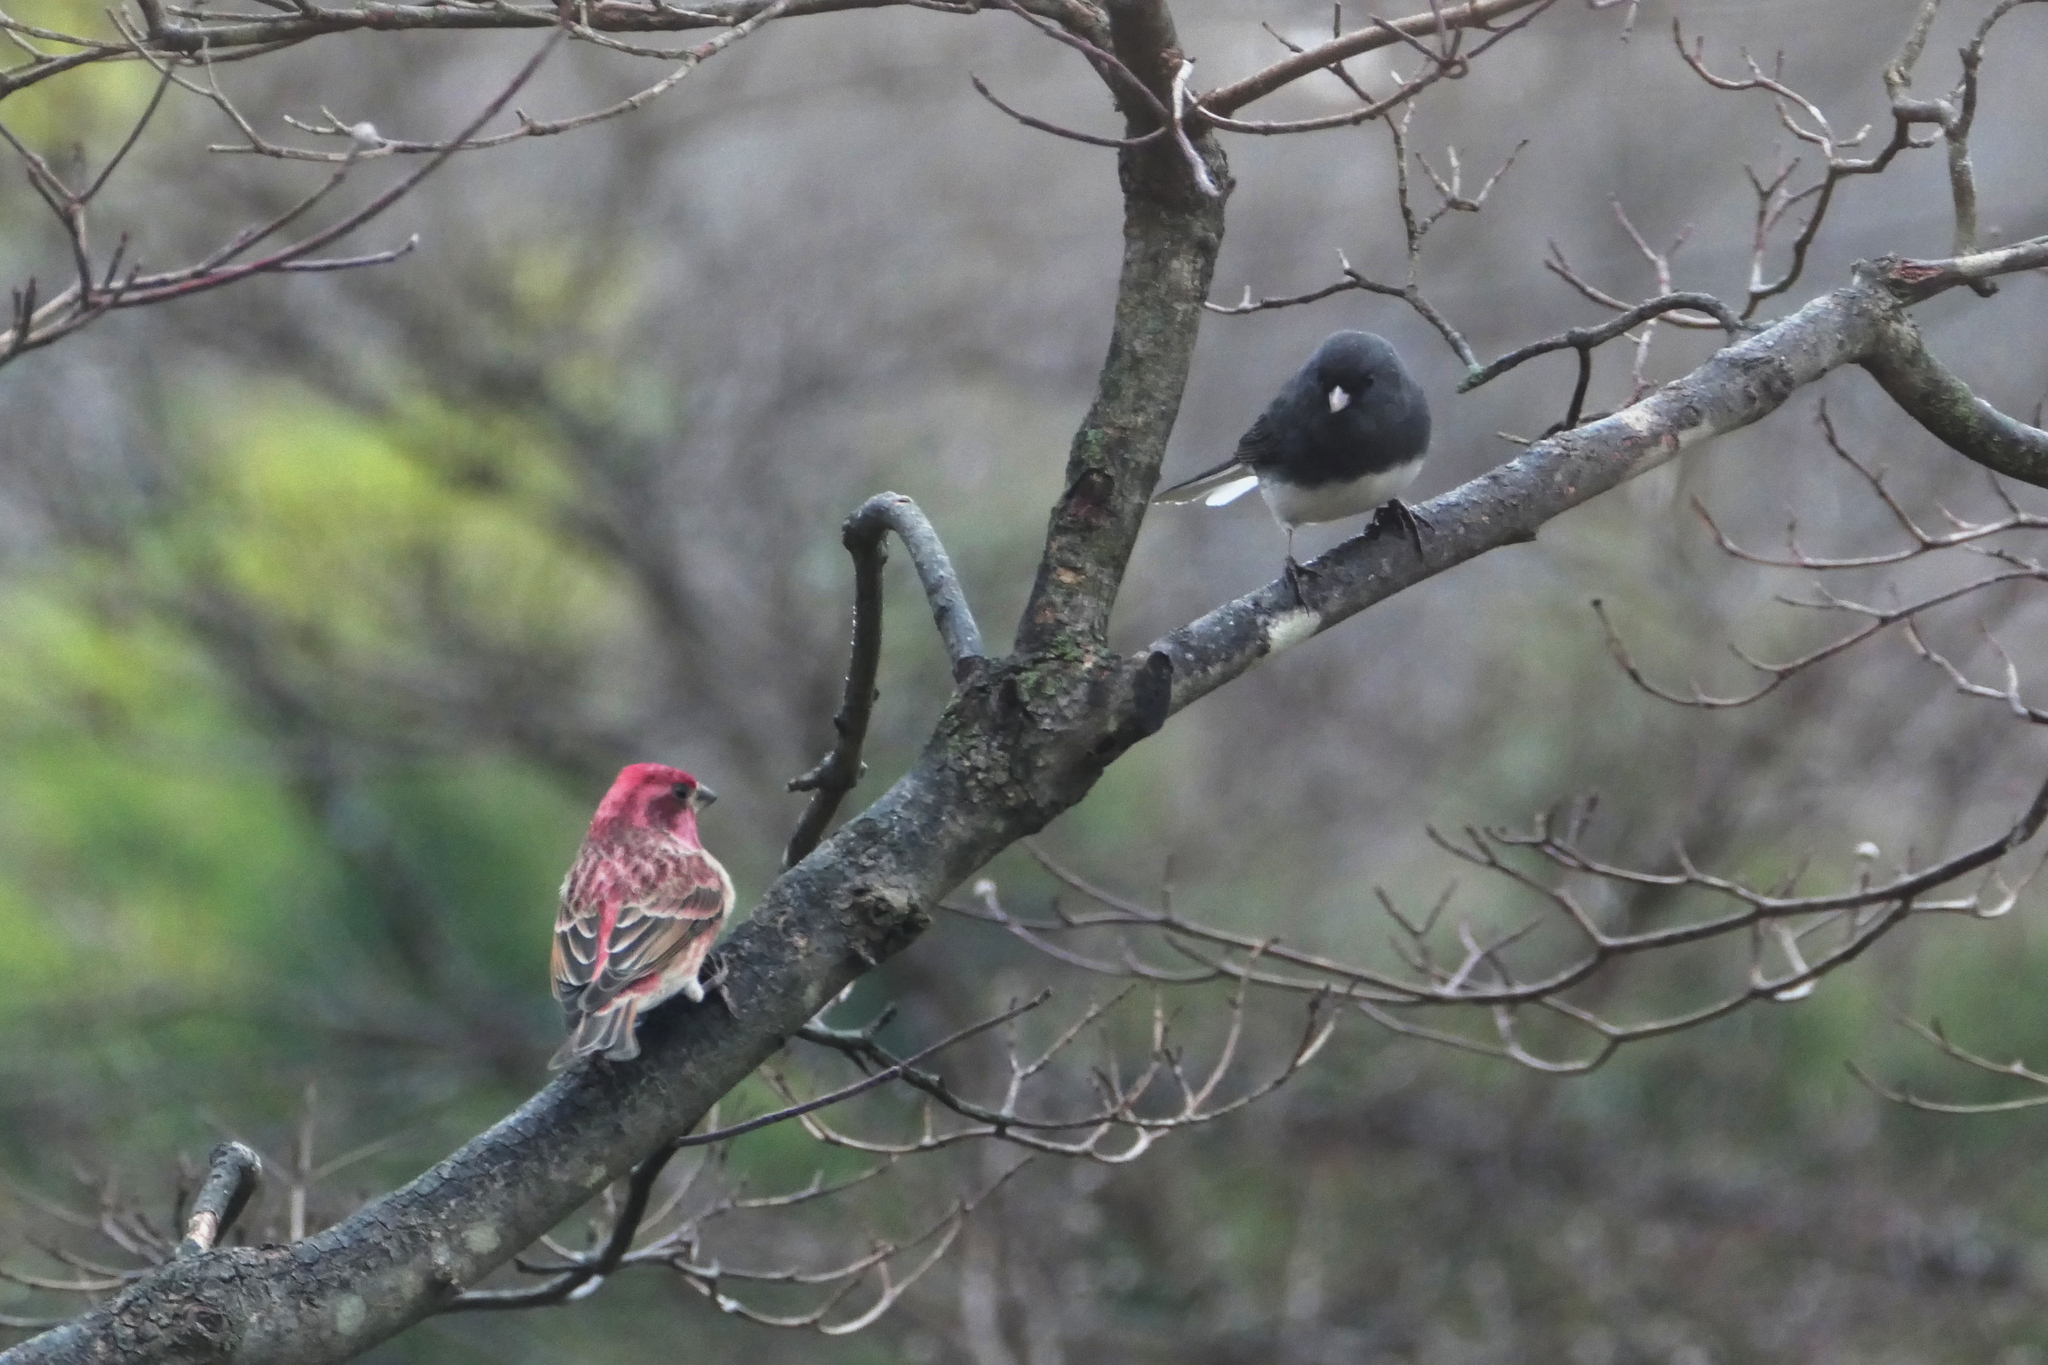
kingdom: Animalia
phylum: Chordata
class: Aves
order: Passeriformes
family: Passerellidae
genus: Junco
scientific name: Junco hyemalis
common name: Dark-eyed junco
